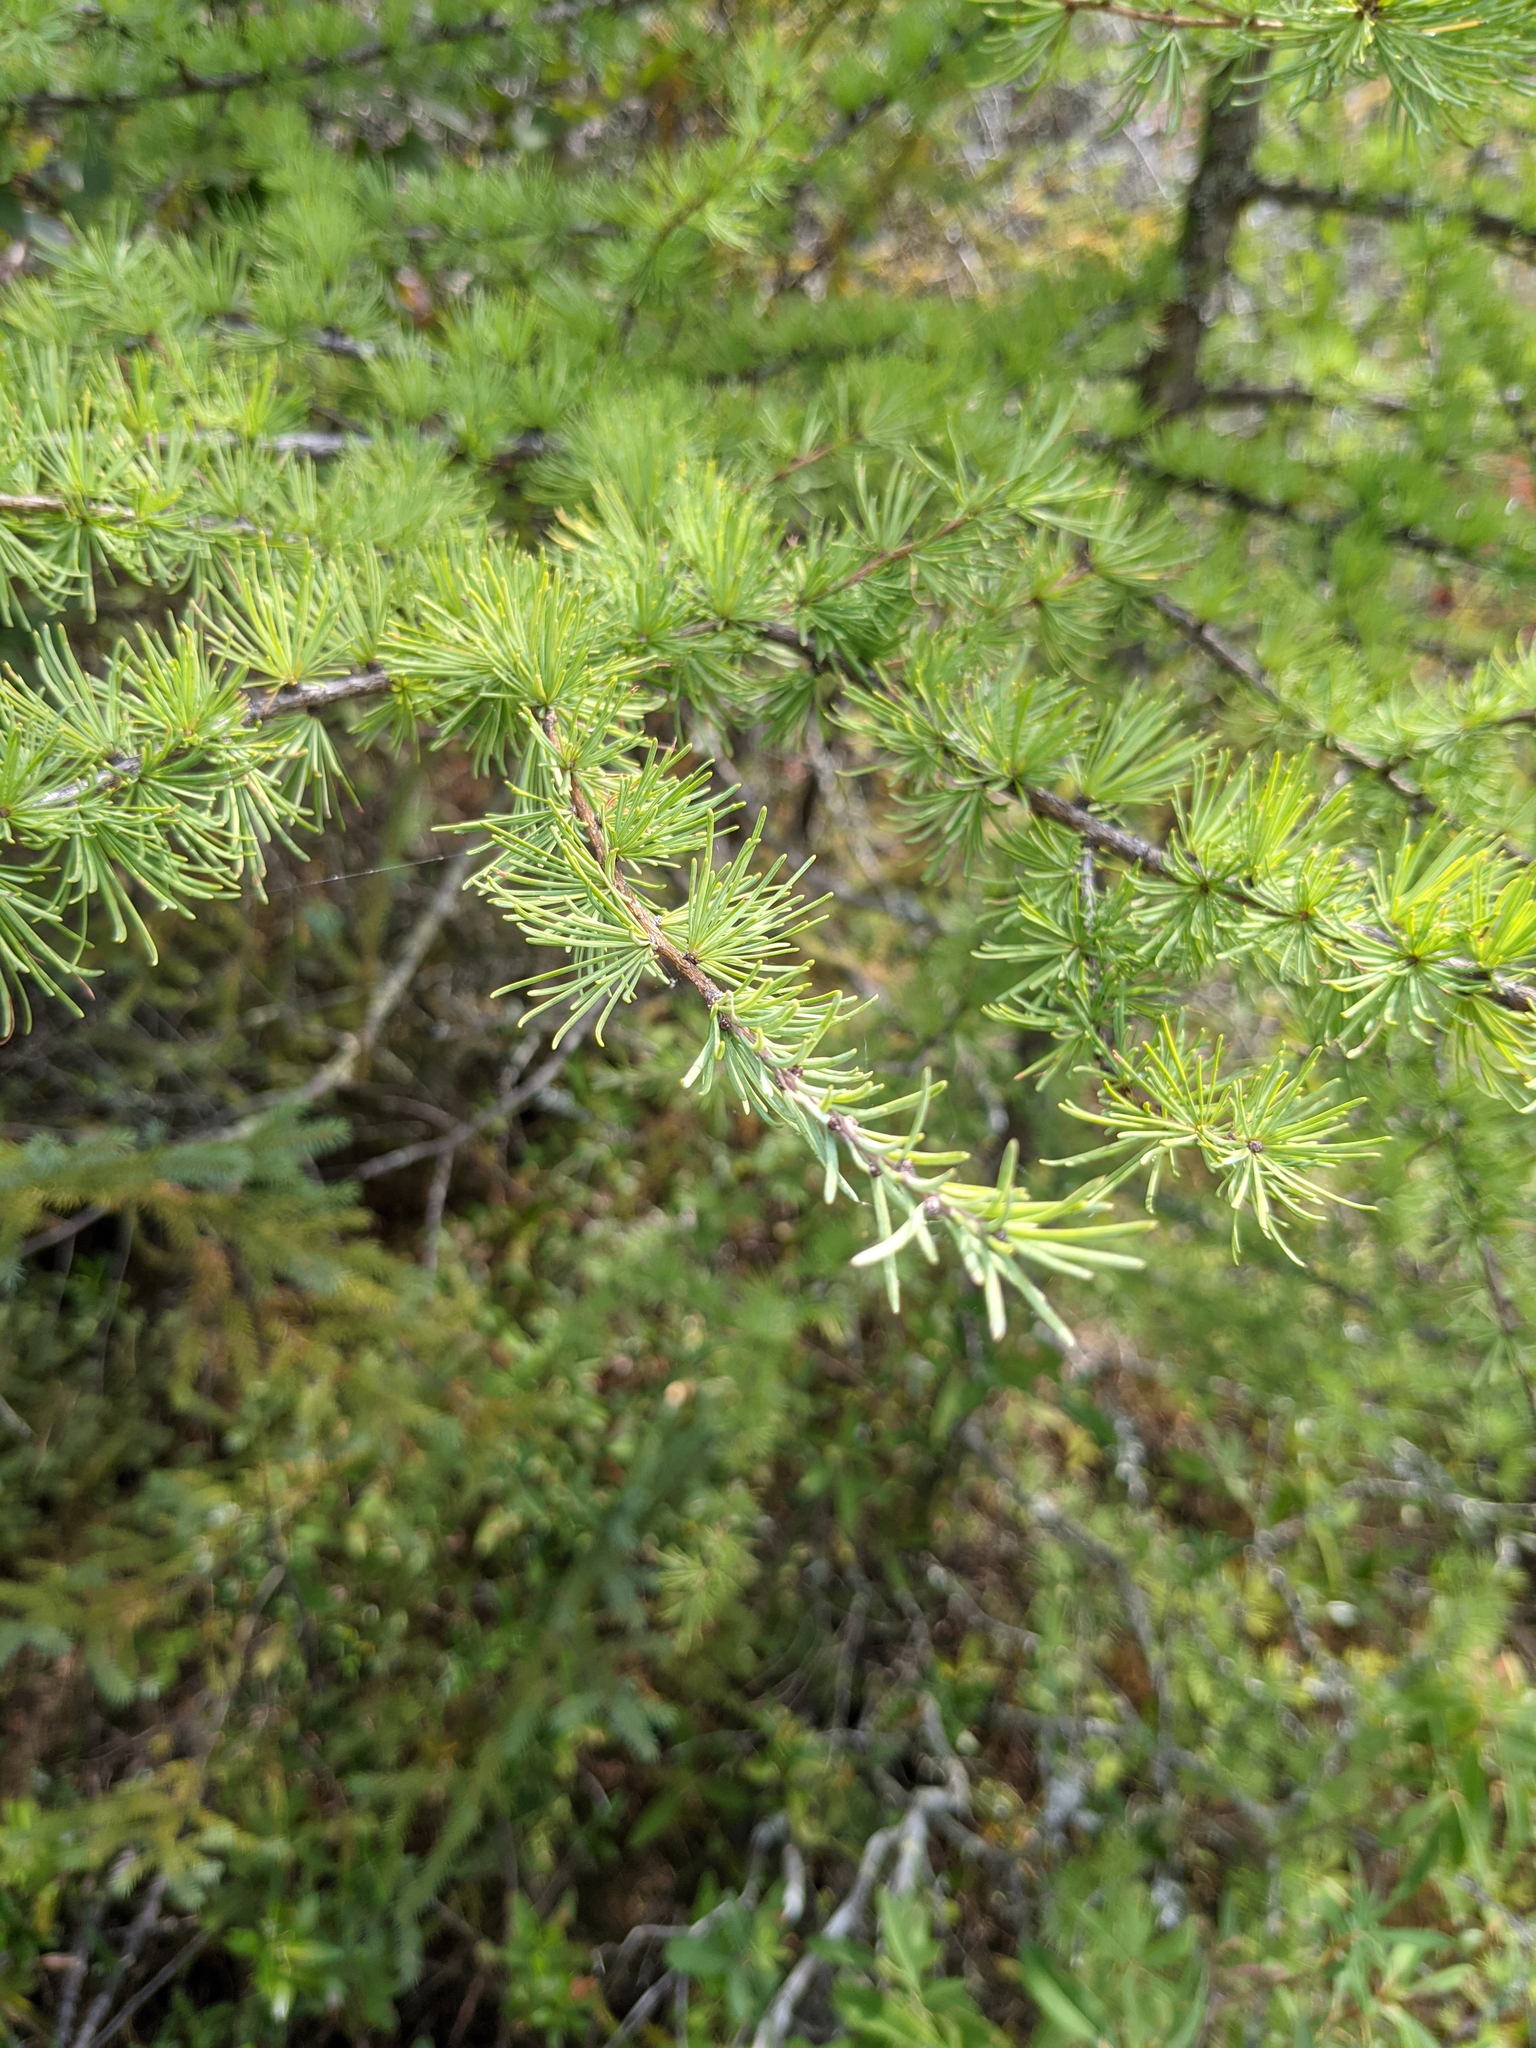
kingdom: Plantae
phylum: Tracheophyta
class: Pinopsida
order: Pinales
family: Pinaceae
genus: Larix
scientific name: Larix laricina
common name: American larch
